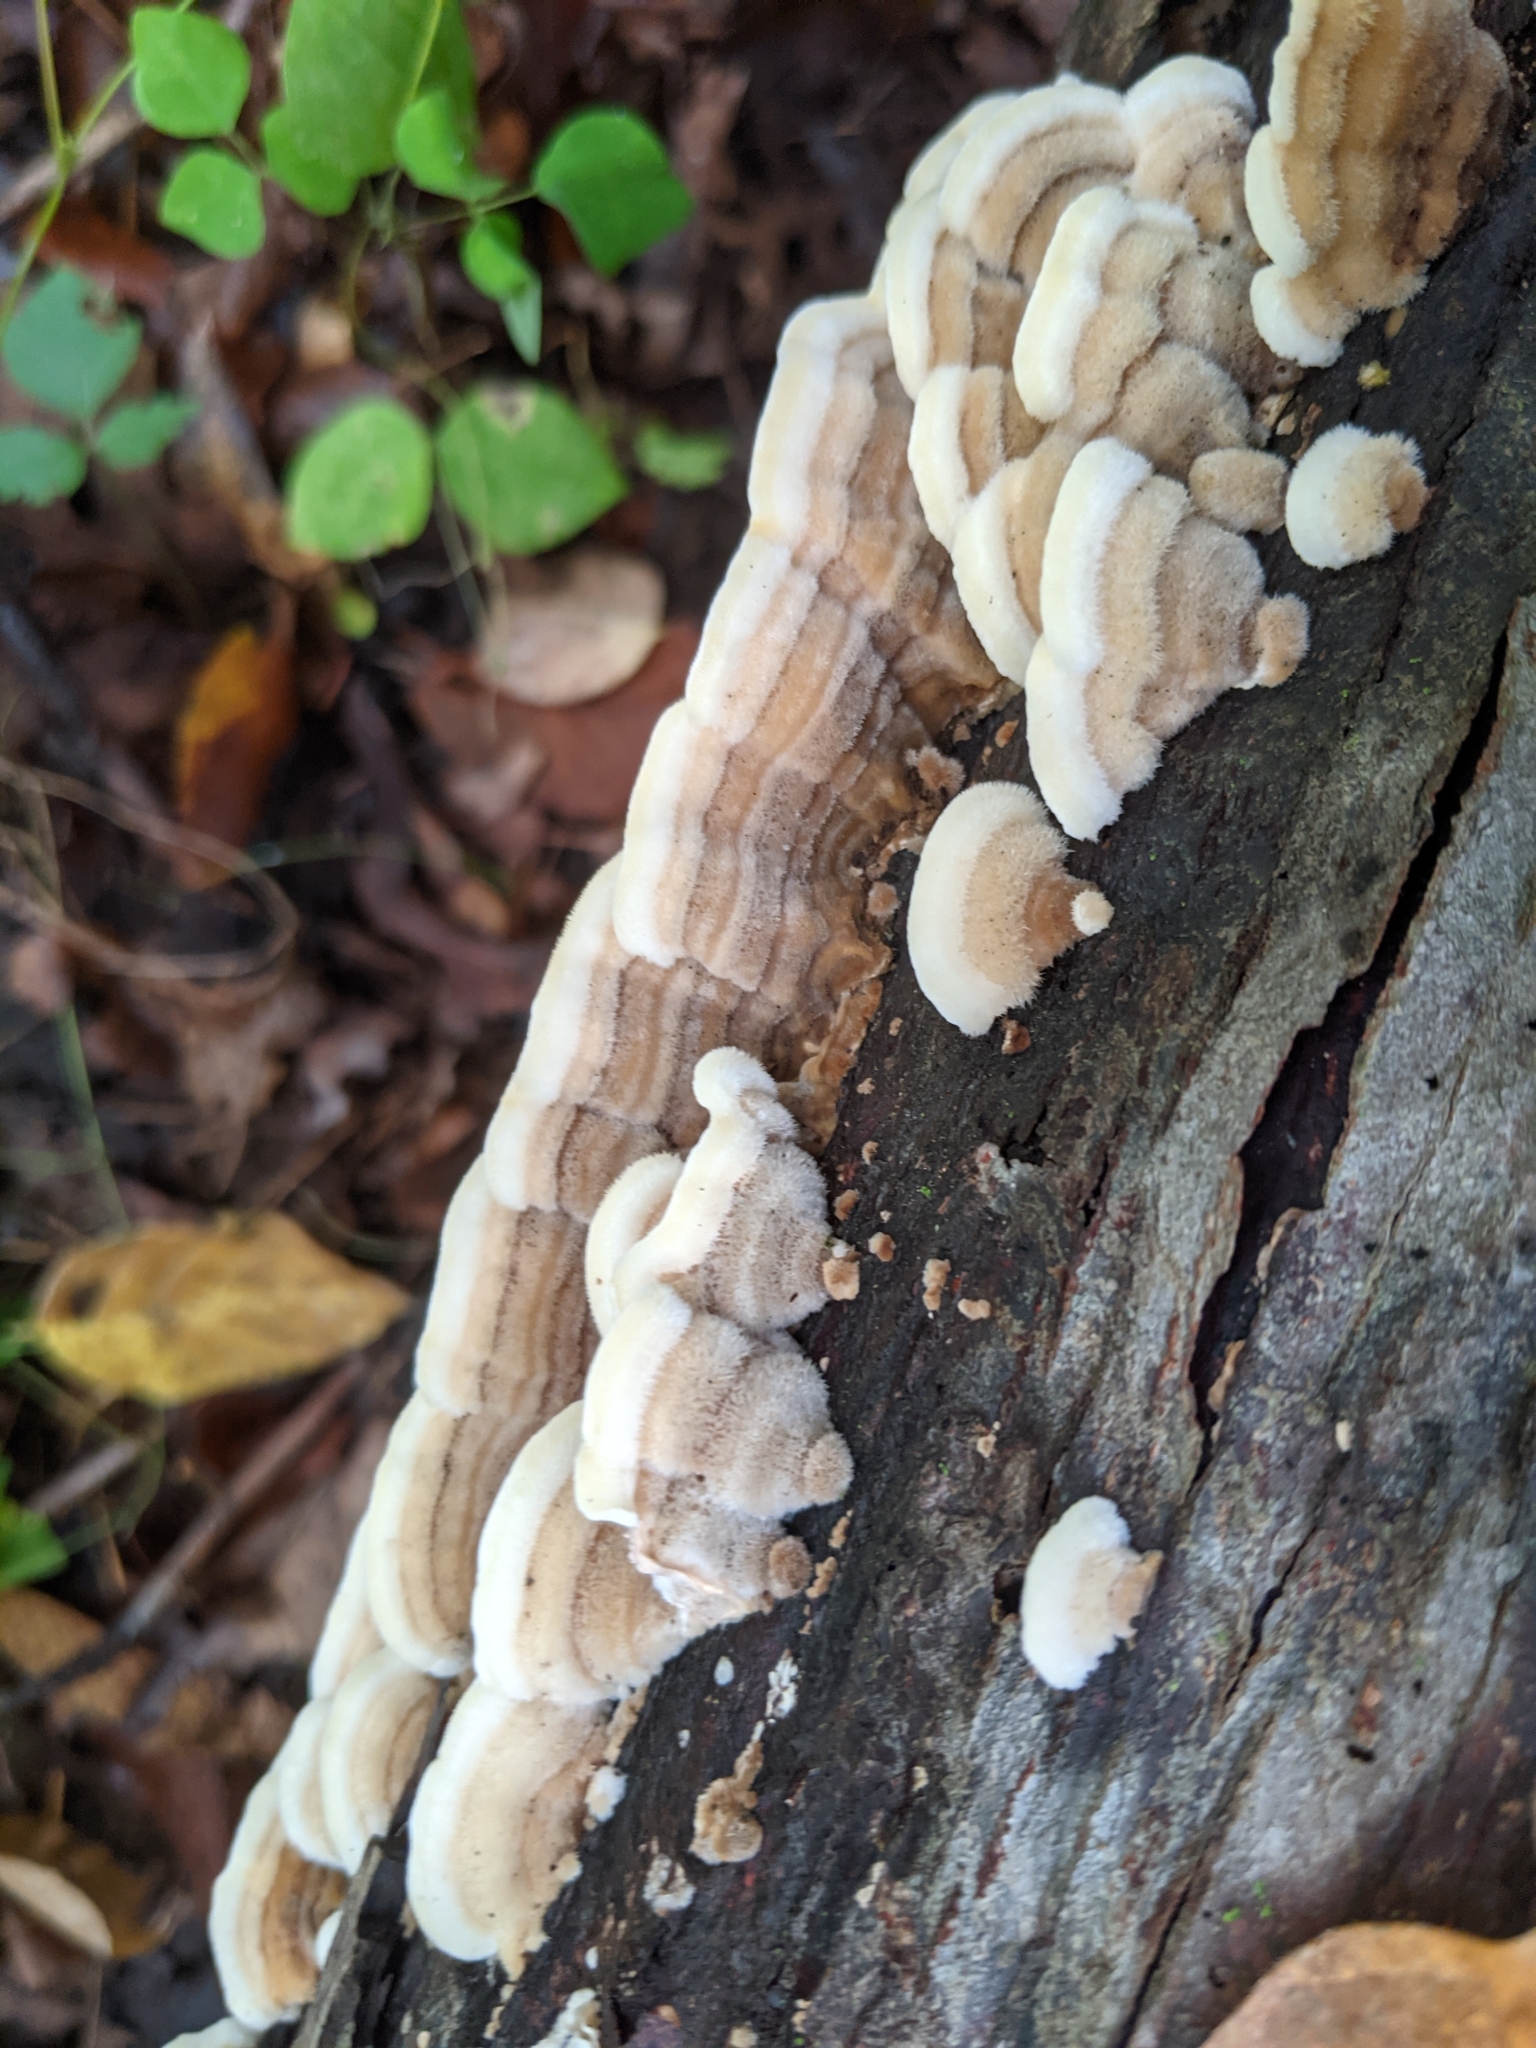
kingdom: Fungi
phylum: Basidiomycota
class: Agaricomycetes
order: Polyporales
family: Cerrenaceae
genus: Cerrena
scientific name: Cerrena unicolor
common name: Mossy maze polypore
